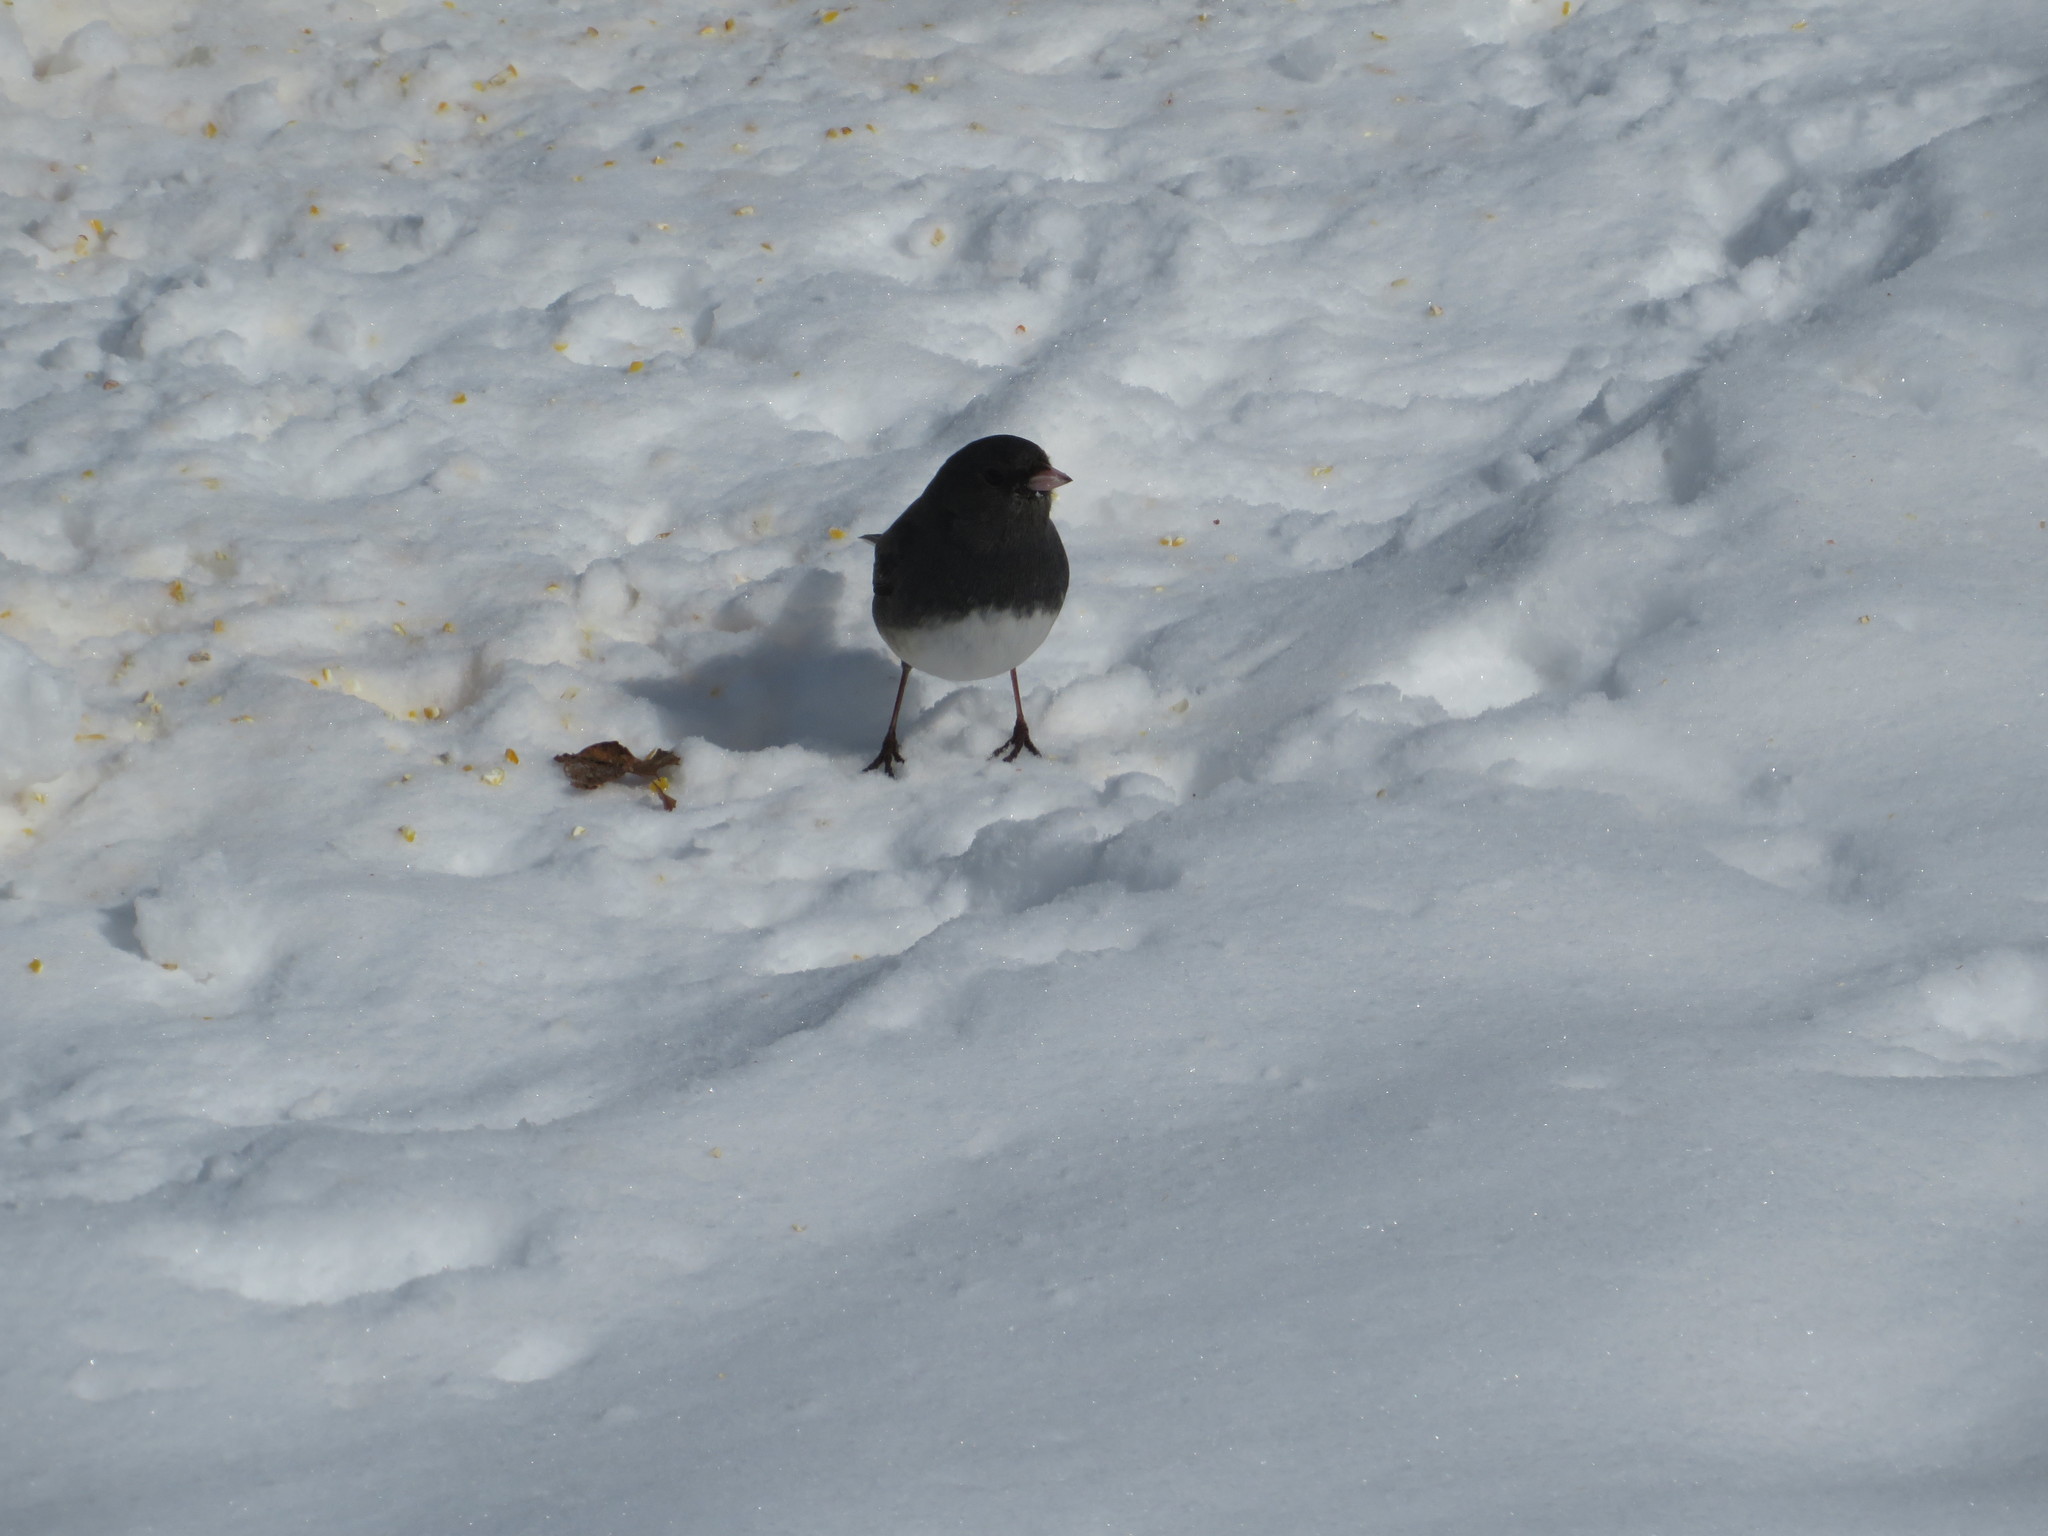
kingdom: Animalia
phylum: Chordata
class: Aves
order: Passeriformes
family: Passerellidae
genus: Junco
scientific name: Junco hyemalis
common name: Dark-eyed junco
